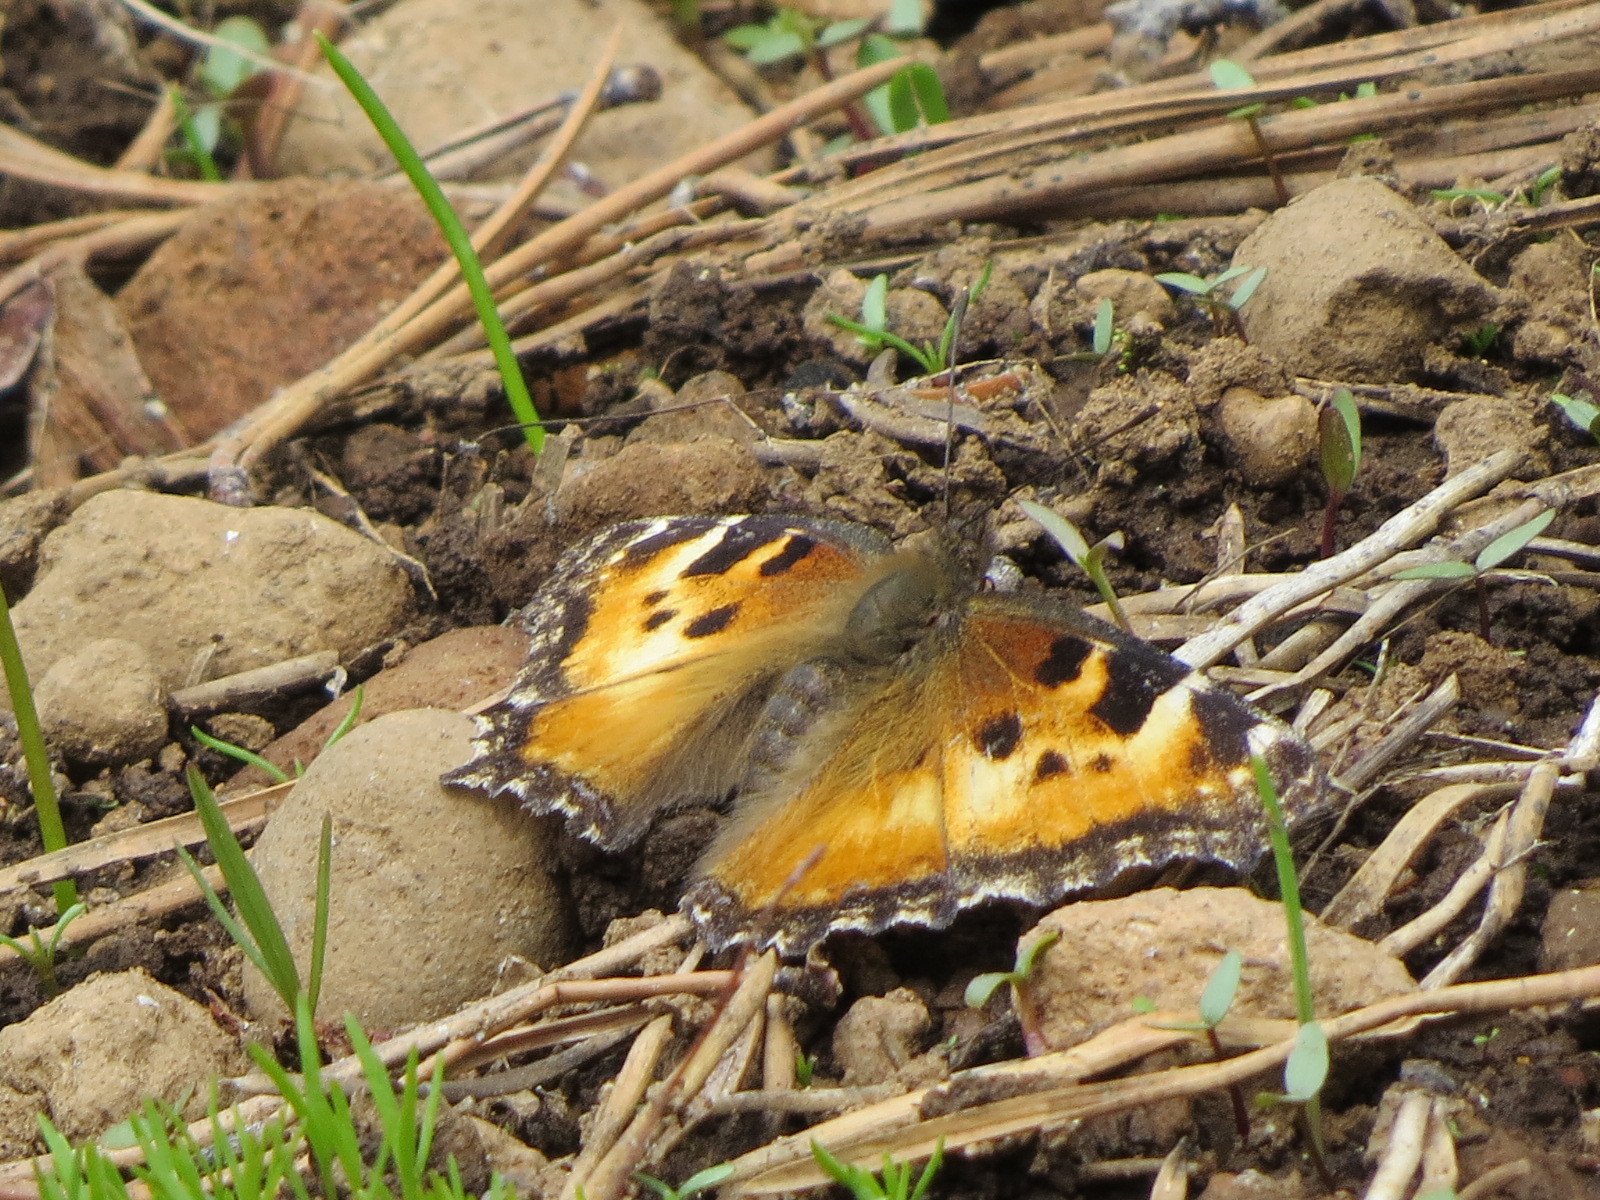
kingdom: Animalia
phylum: Arthropoda
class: Insecta
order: Lepidoptera
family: Nymphalidae
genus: Nymphalis
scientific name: Nymphalis californica
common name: California tortoiseshell
